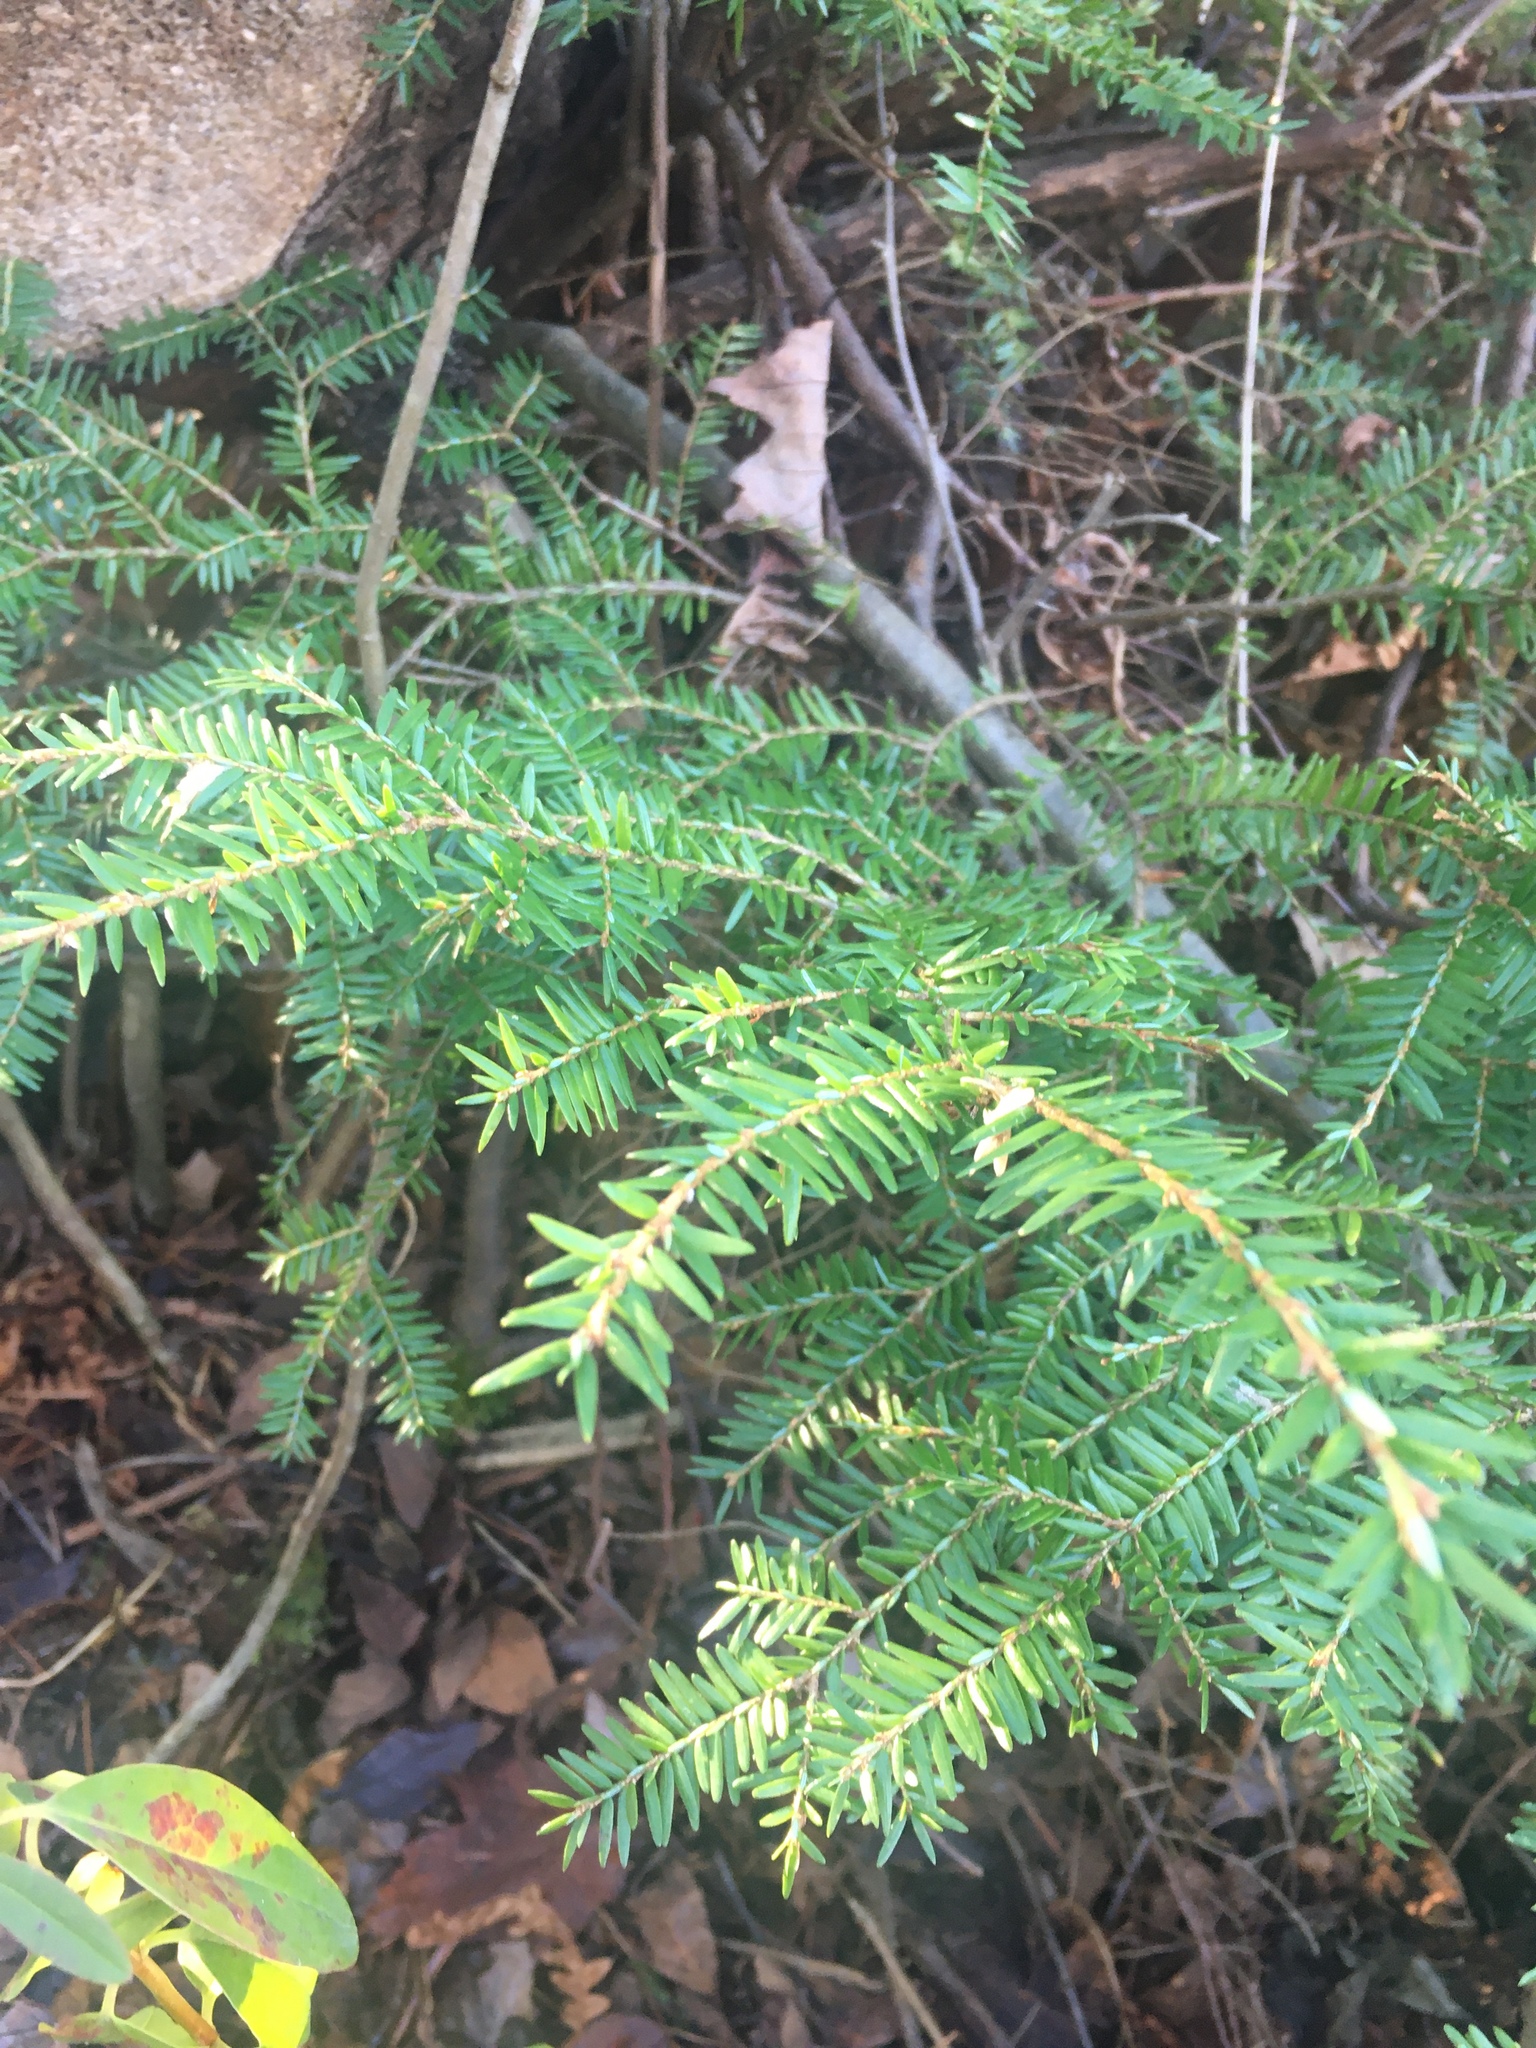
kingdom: Plantae
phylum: Tracheophyta
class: Pinopsida
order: Pinales
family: Pinaceae
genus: Tsuga
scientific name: Tsuga canadensis
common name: Eastern hemlock
